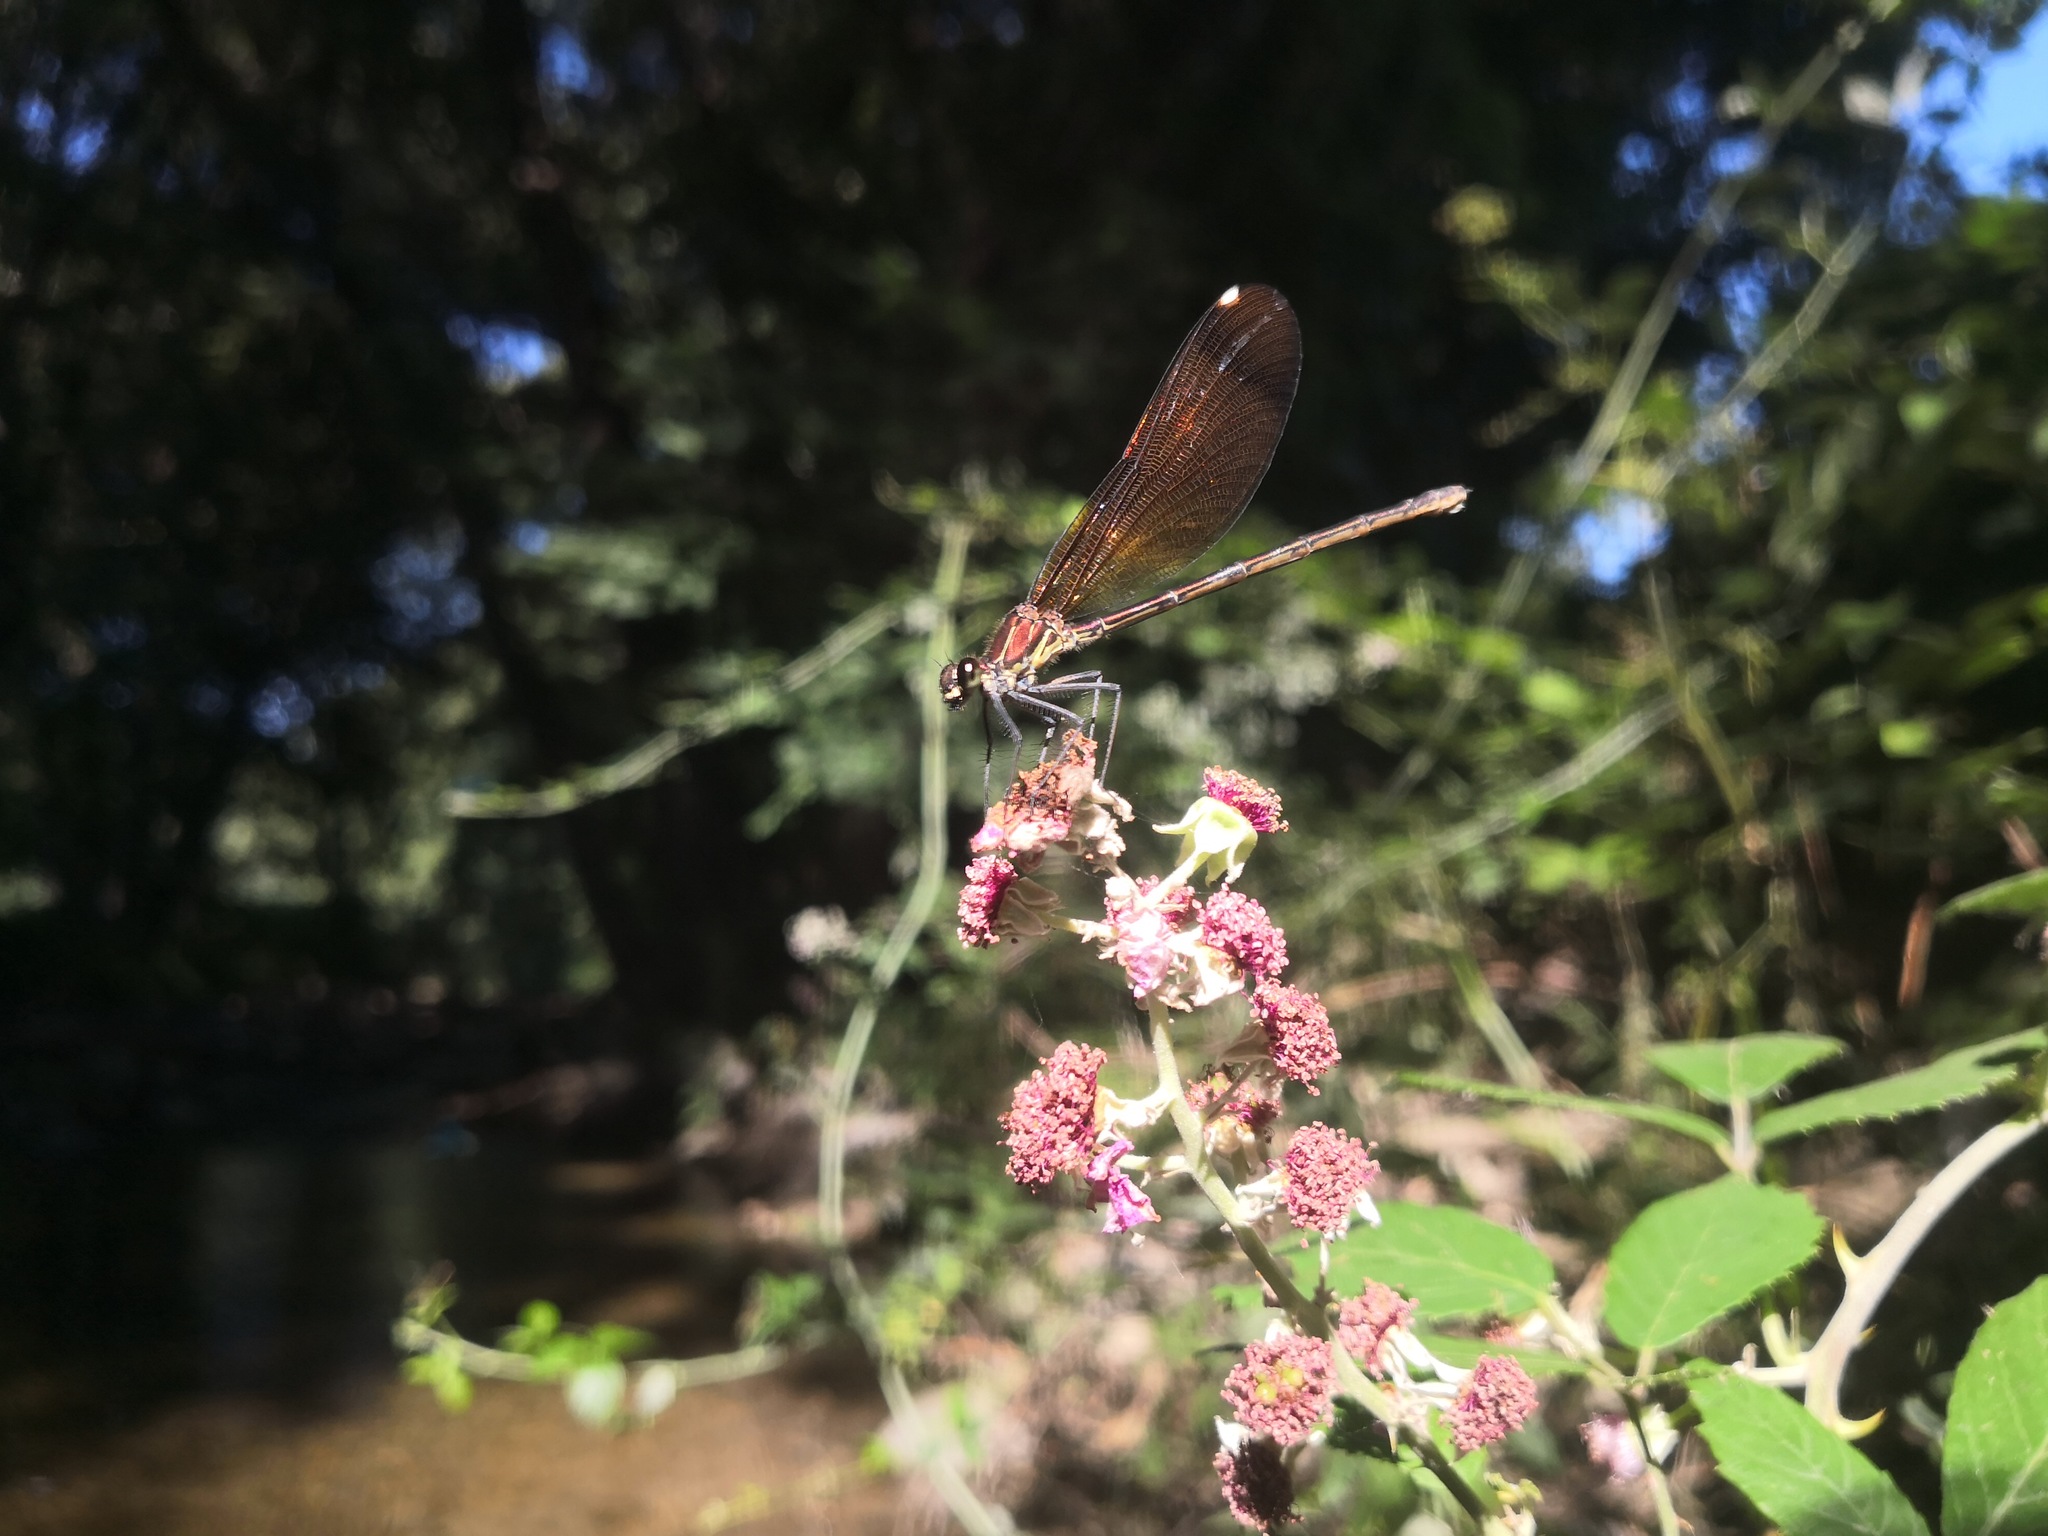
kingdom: Animalia
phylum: Arthropoda
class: Insecta
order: Odonata
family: Calopterygidae
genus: Calopteryx
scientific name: Calopteryx haemorrhoidalis
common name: Copper demoiselle
